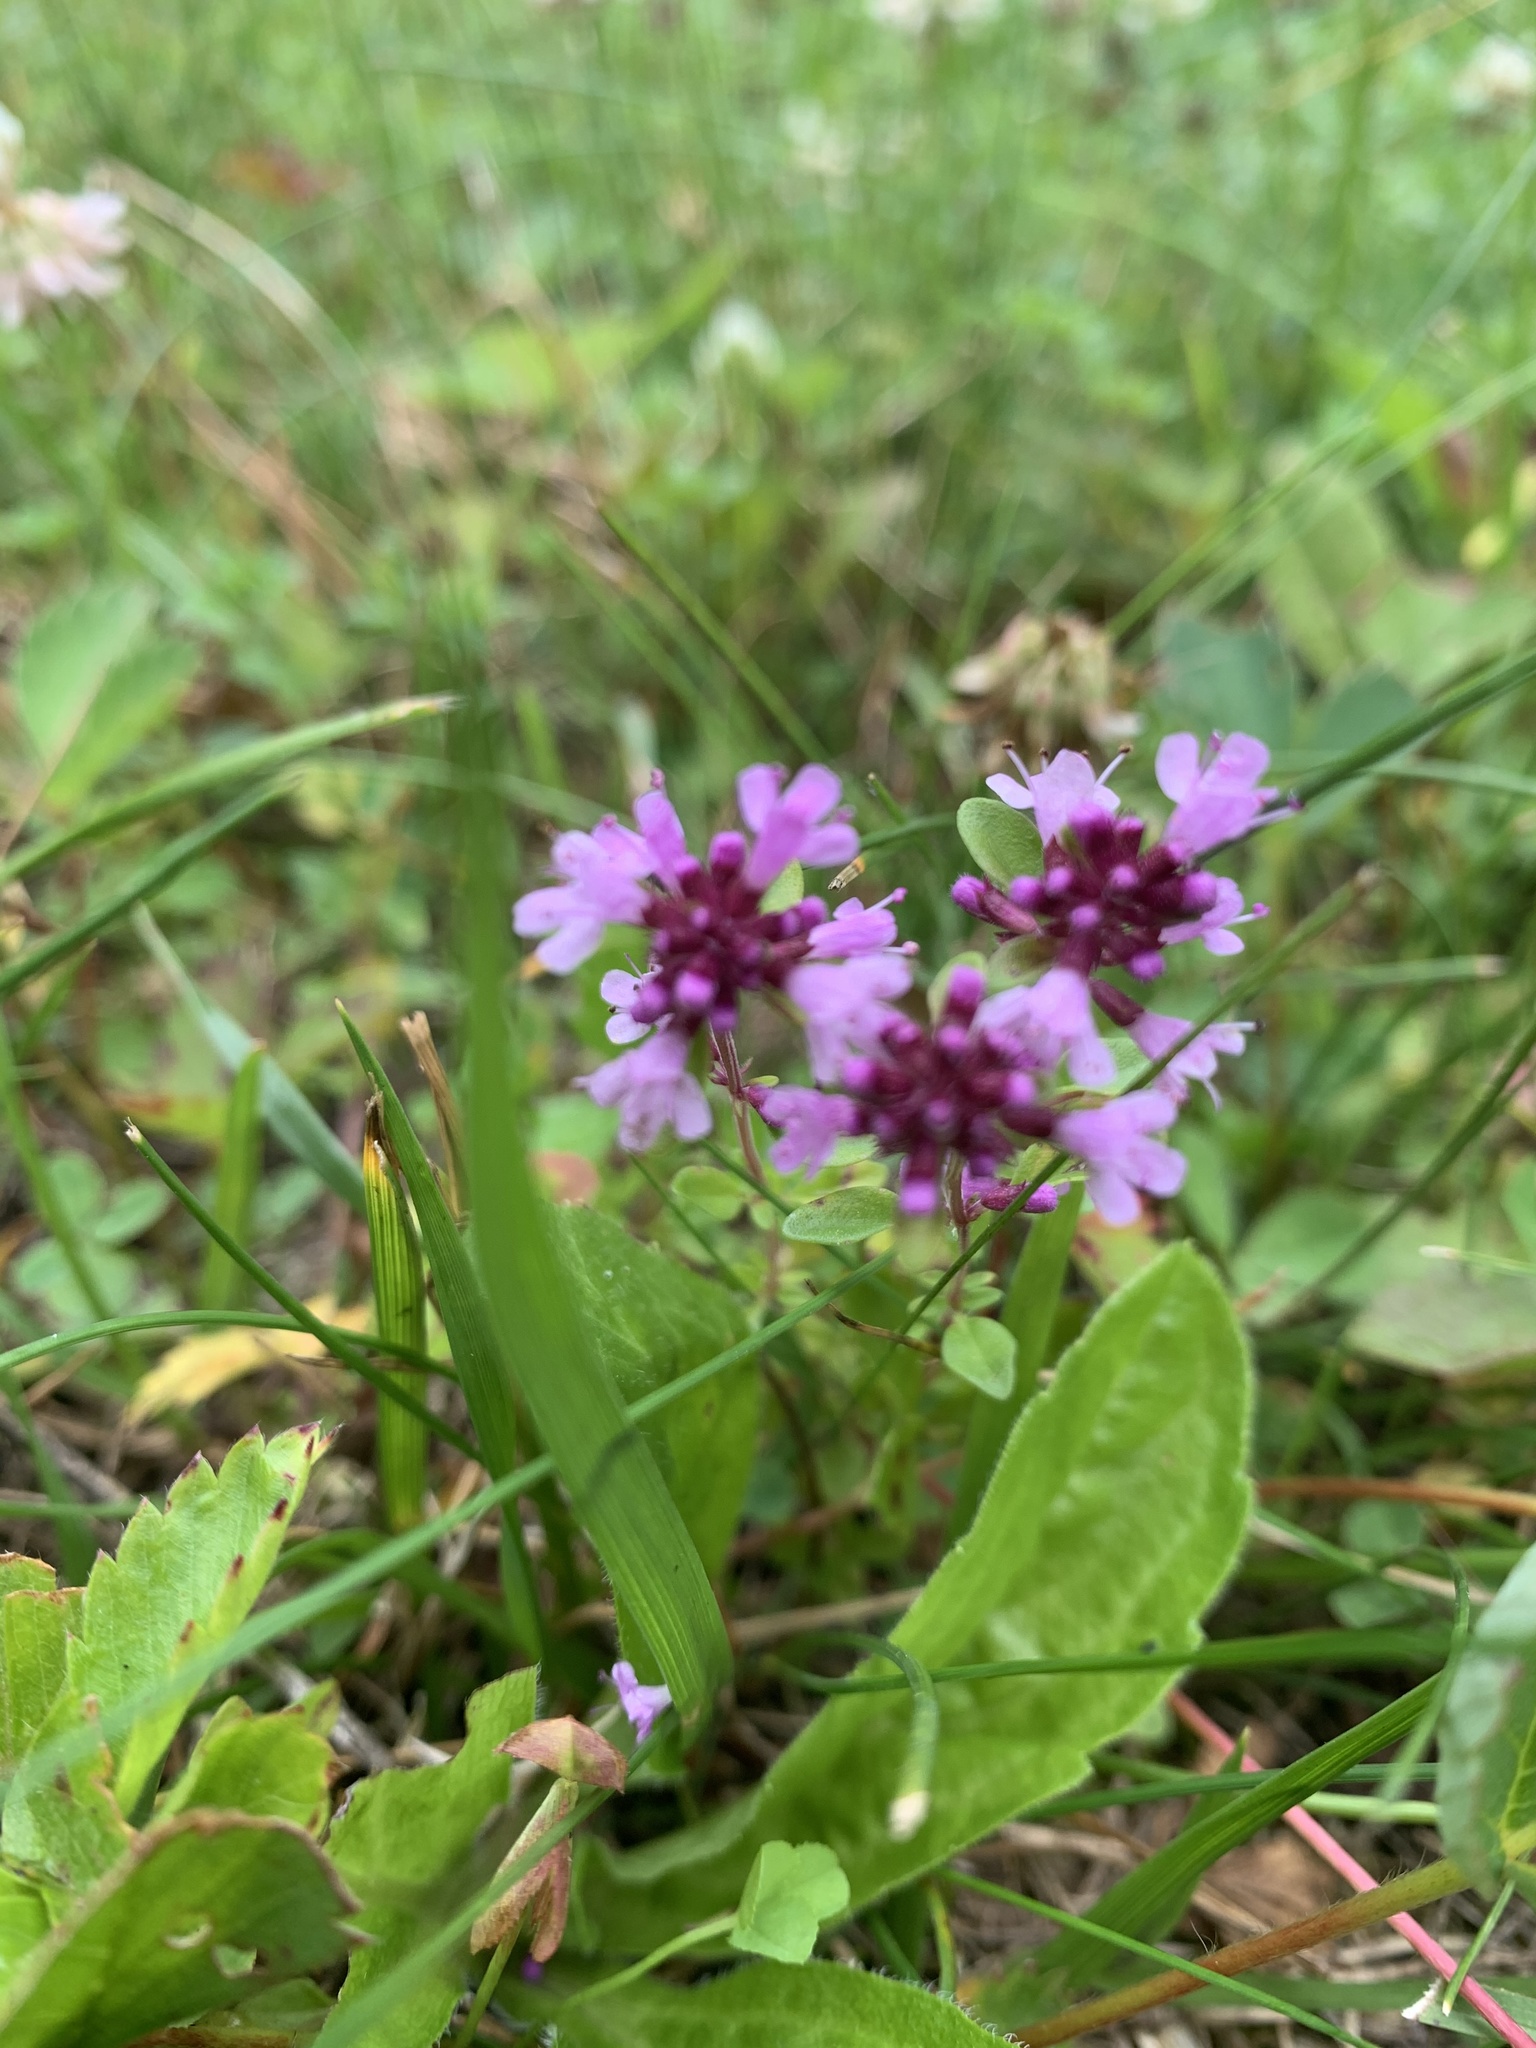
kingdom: Plantae
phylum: Tracheophyta
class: Magnoliopsida
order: Lamiales
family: Lamiaceae
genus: Thymus
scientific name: Thymus pulegioides
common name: Large thyme
